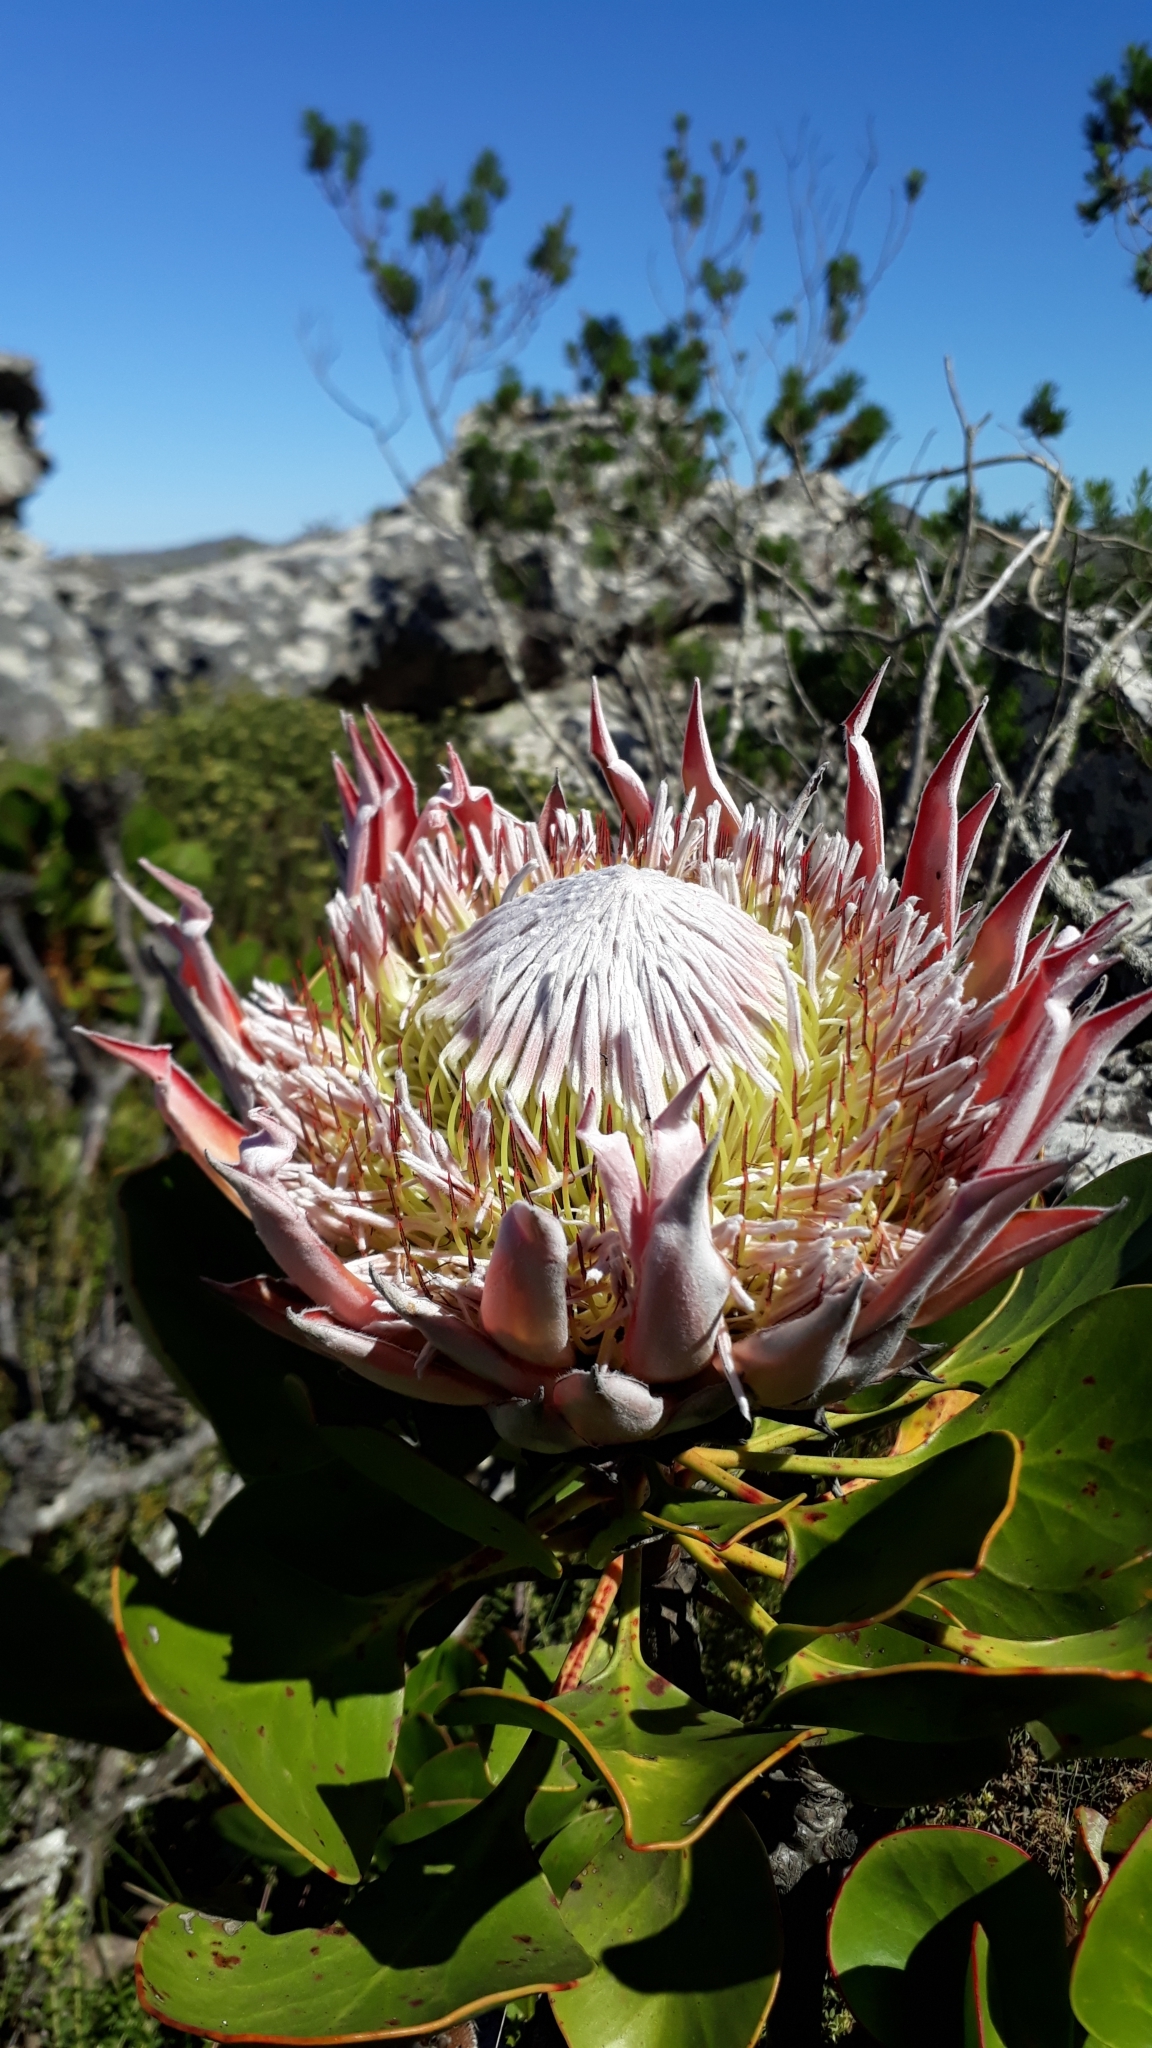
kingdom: Plantae
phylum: Tracheophyta
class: Magnoliopsida
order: Proteales
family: Proteaceae
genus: Protea
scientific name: Protea cynaroides
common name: King protea
